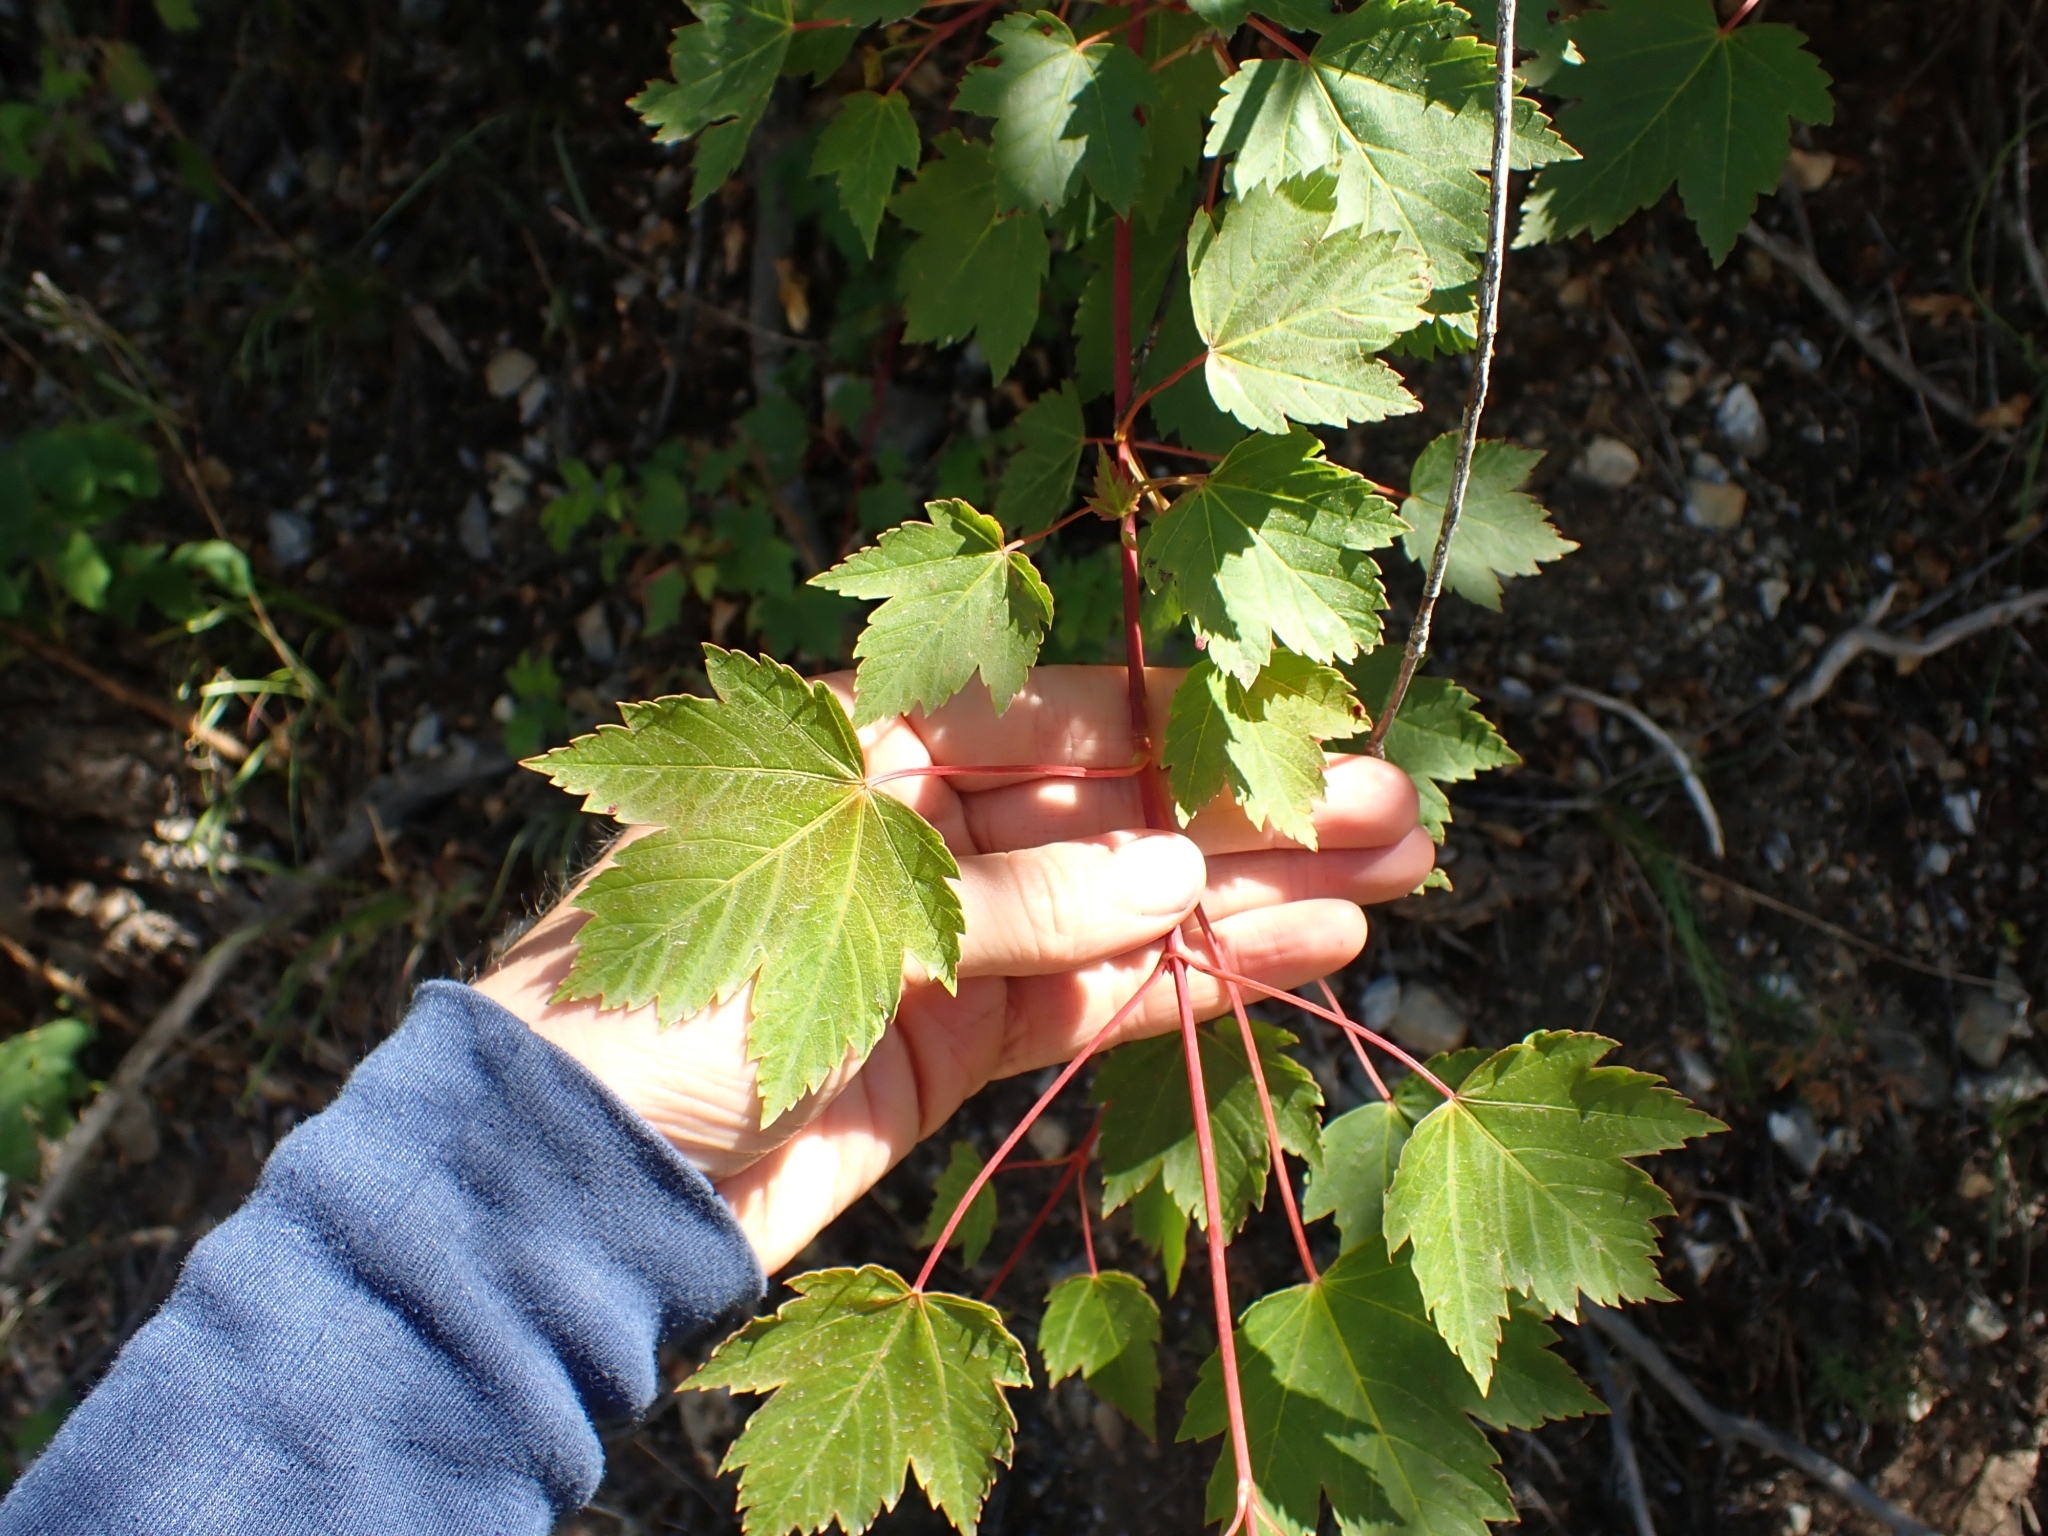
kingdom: Plantae
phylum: Tracheophyta
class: Magnoliopsida
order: Sapindales
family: Sapindaceae
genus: Acer
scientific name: Acer glabrum
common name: Rocky mountain maple
